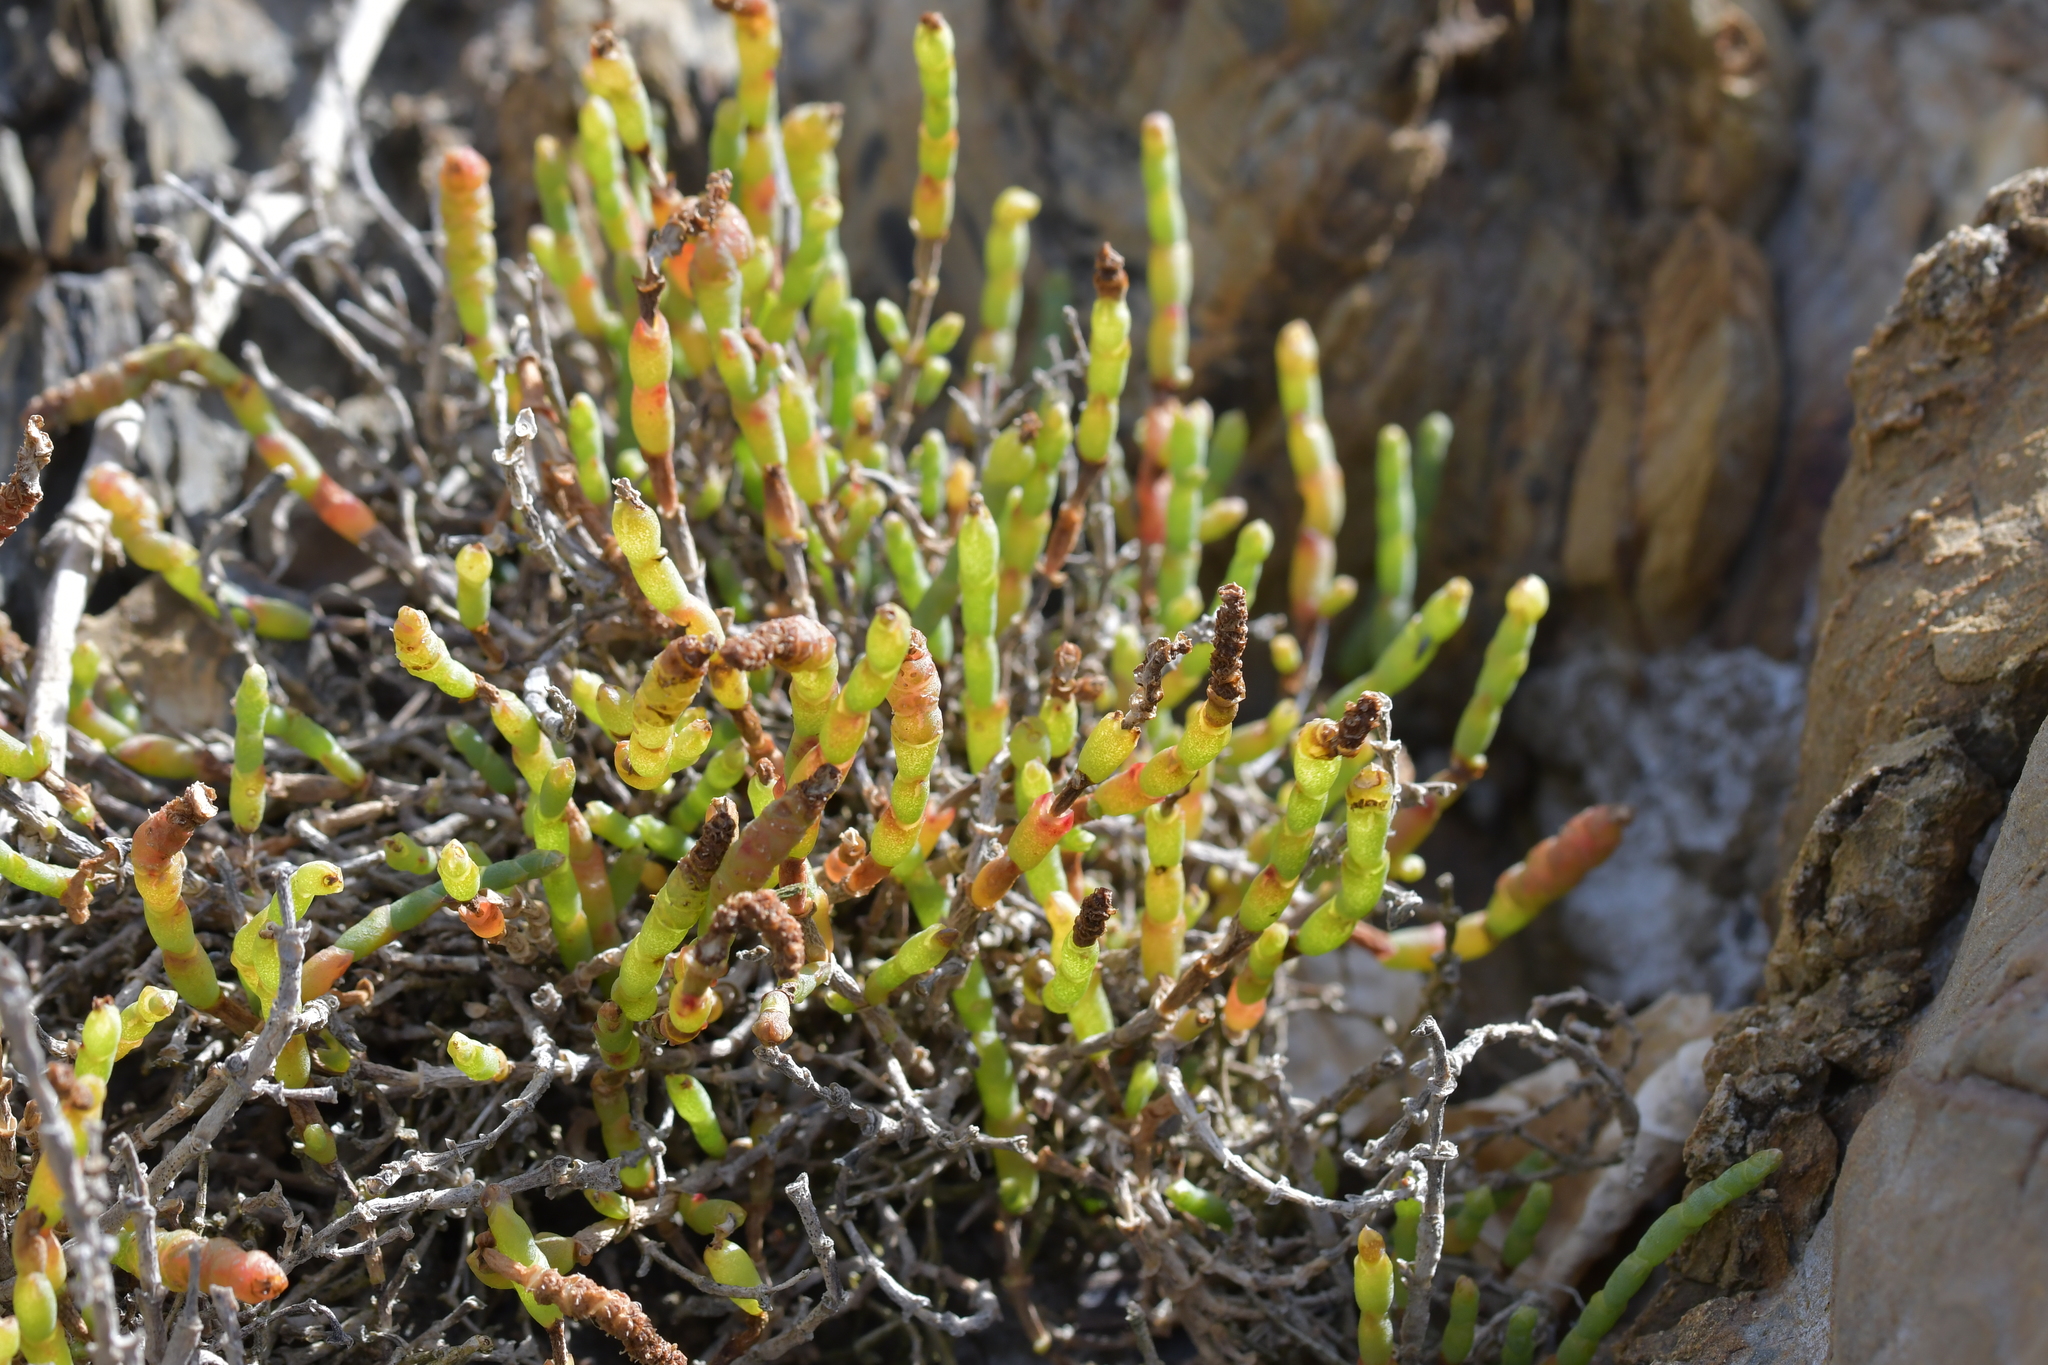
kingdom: Plantae
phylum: Tracheophyta
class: Magnoliopsida
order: Caryophyllales
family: Amaranthaceae
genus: Salicornia
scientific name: Salicornia quinqueflora
